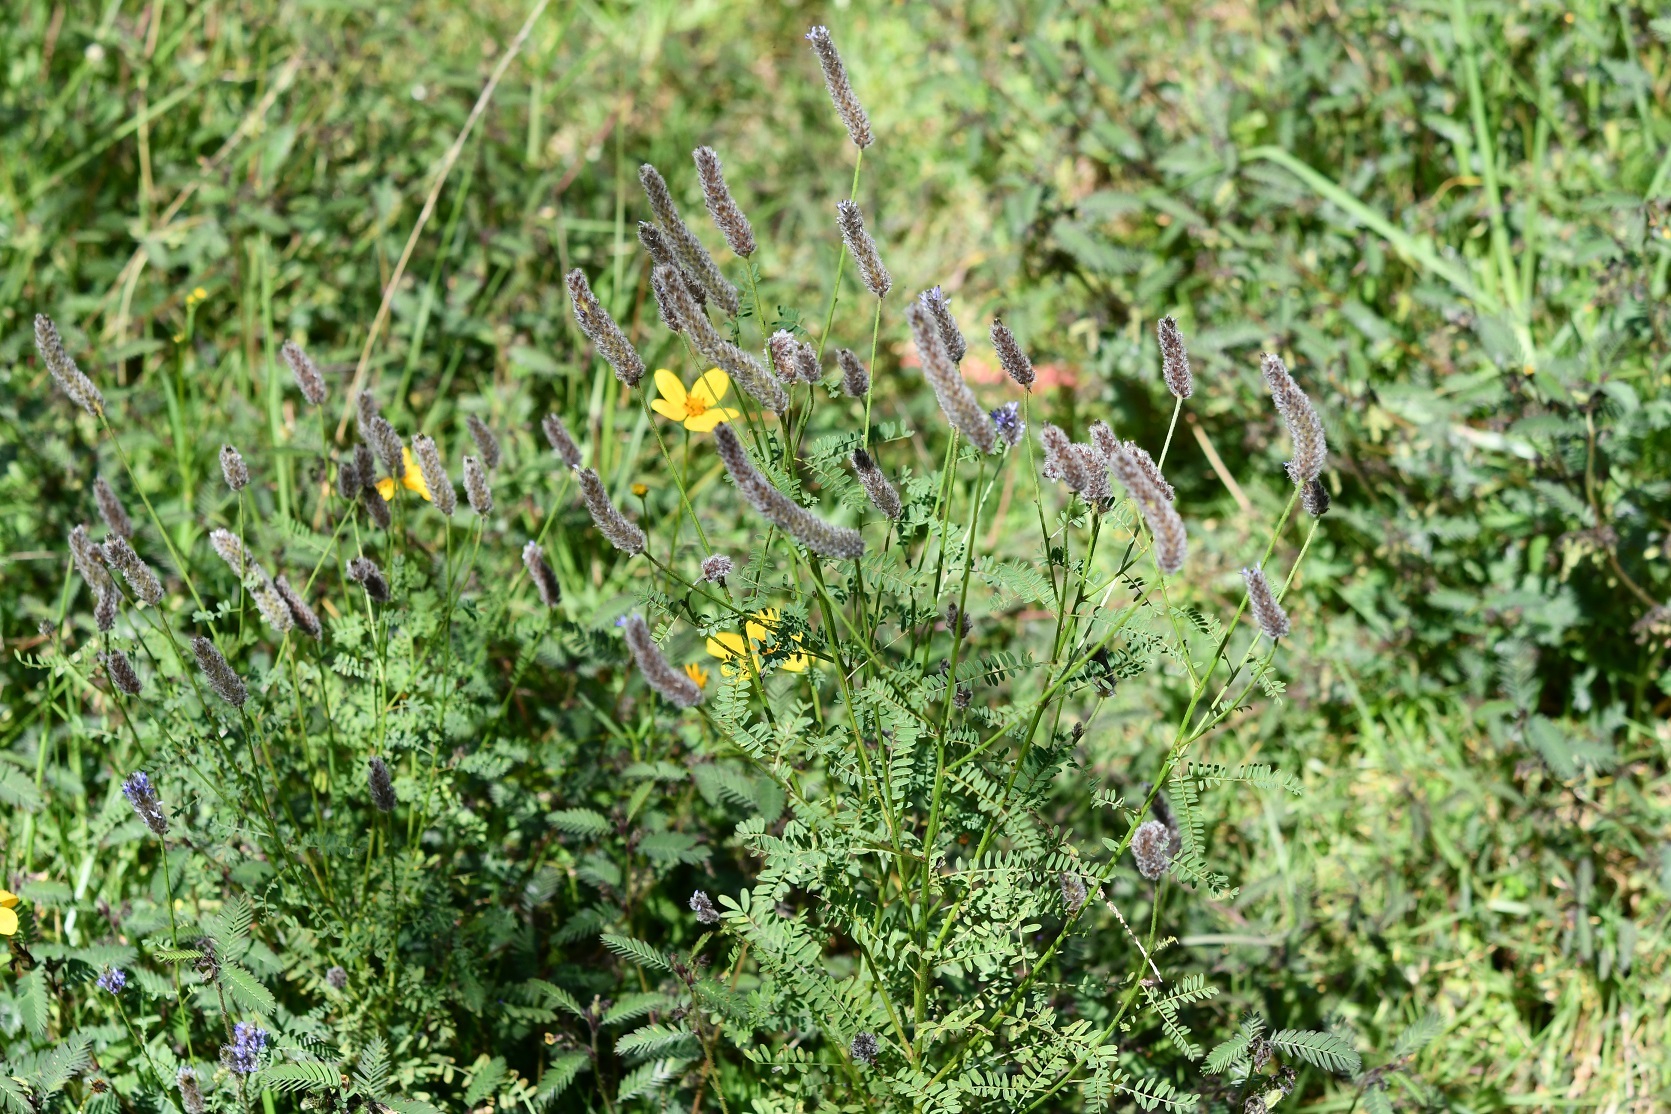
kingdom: Plantae
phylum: Tracheophyta
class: Magnoliopsida
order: Fabales
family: Fabaceae
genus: Dalea
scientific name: Dalea leporina
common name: Foxtail dalea
